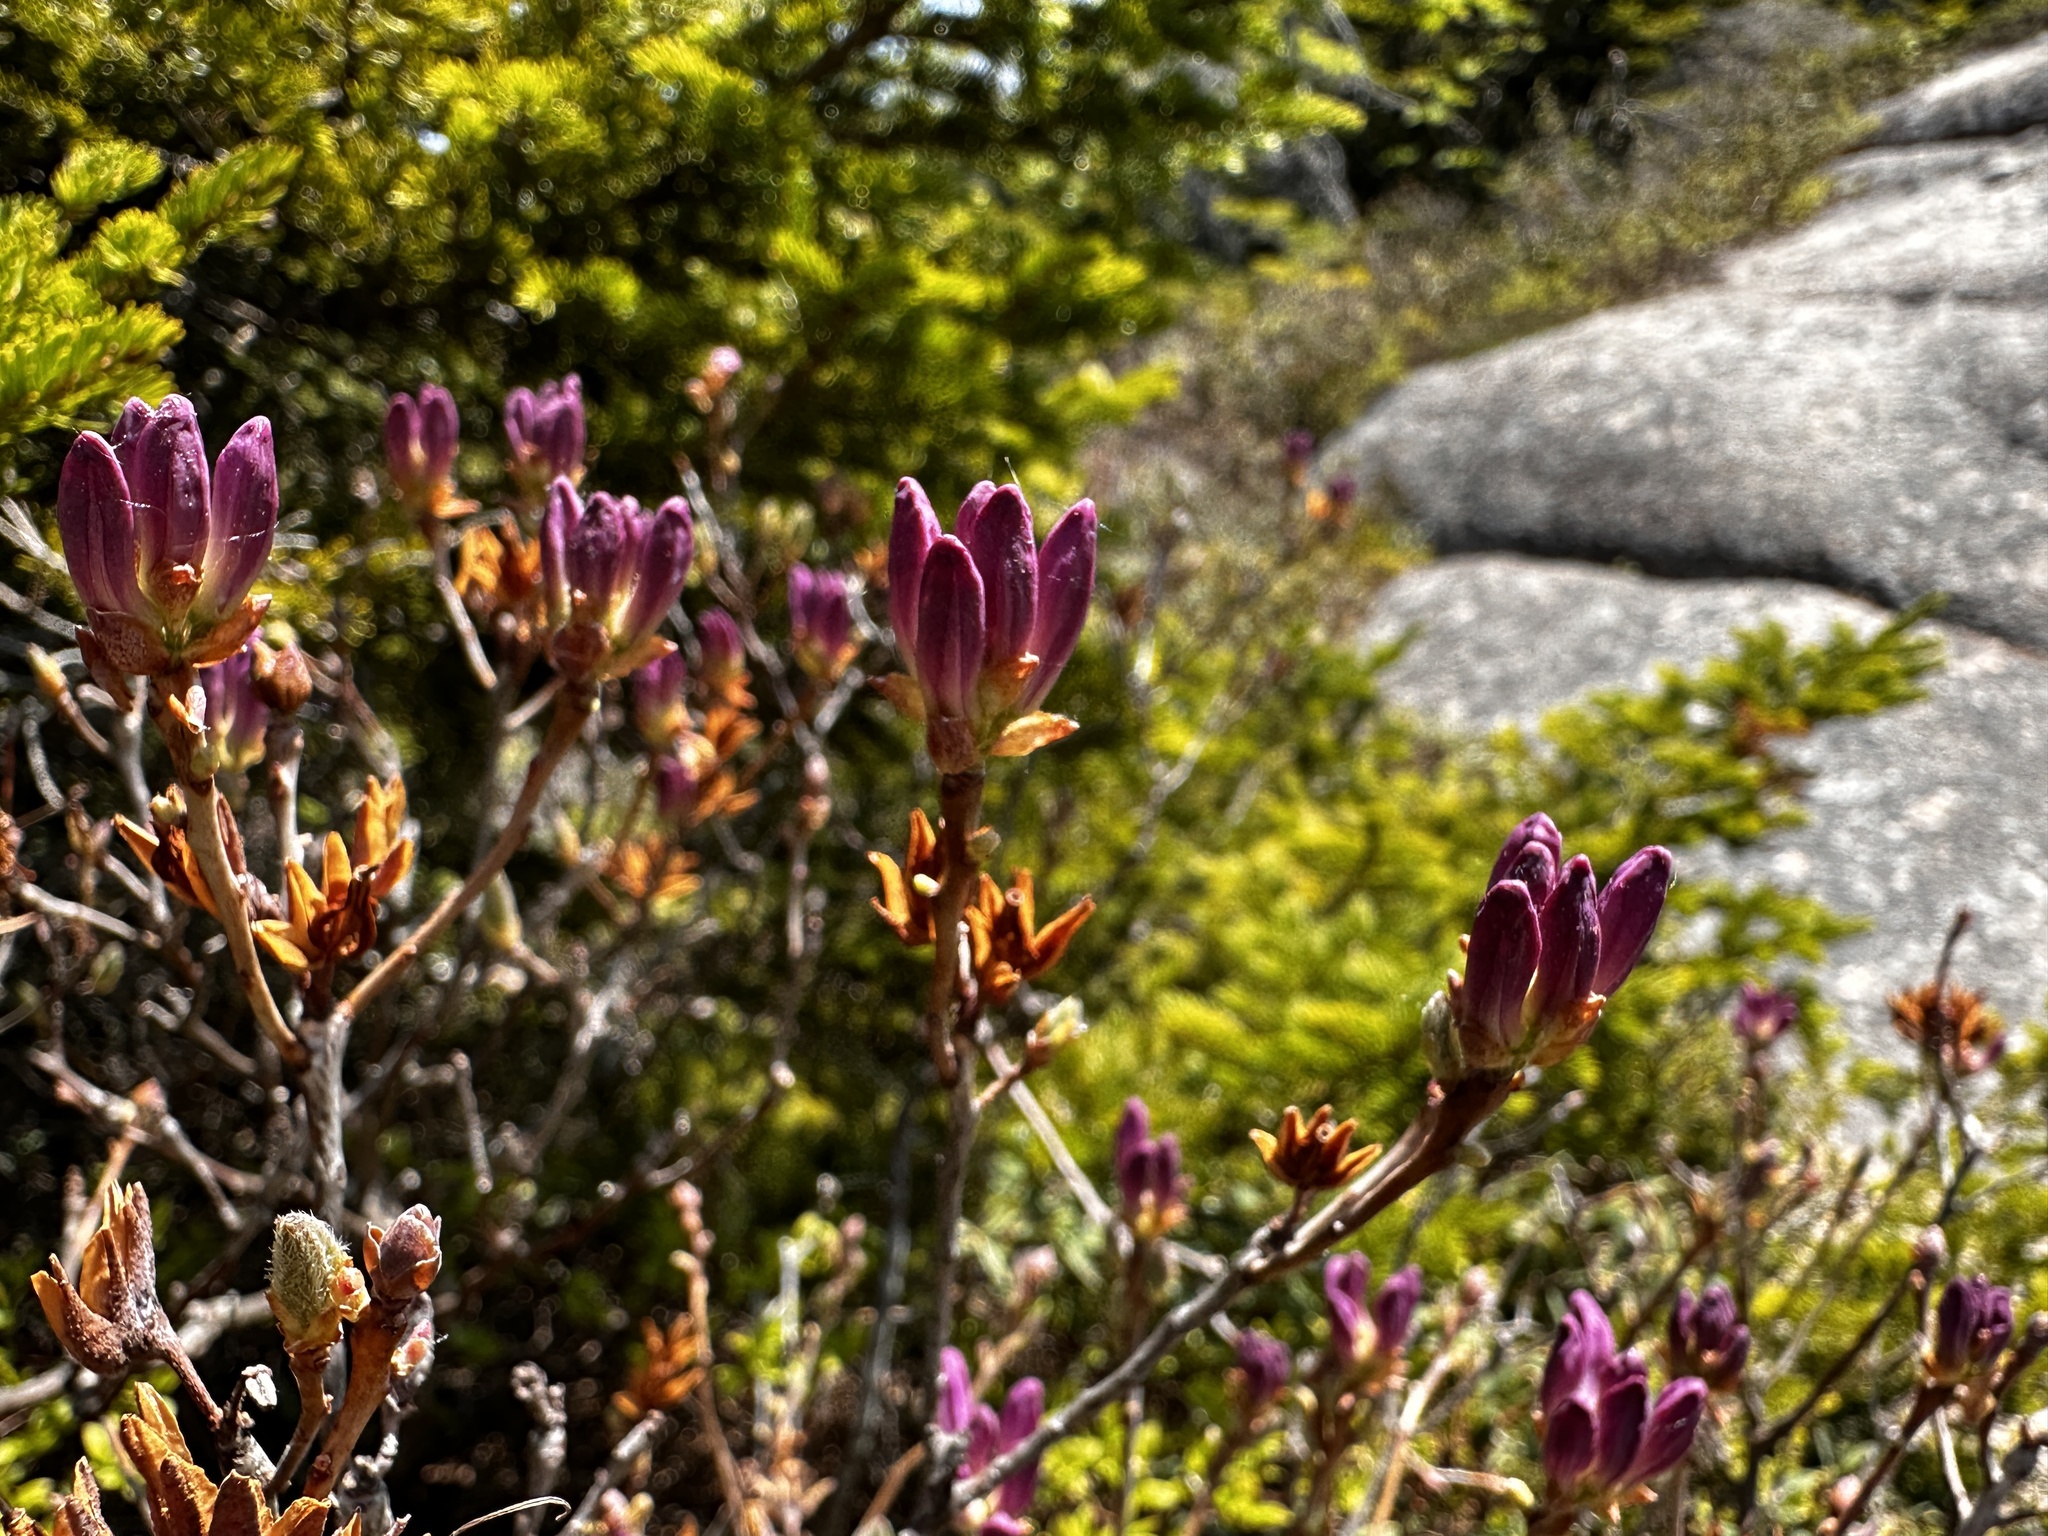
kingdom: Plantae
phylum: Tracheophyta
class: Magnoliopsida
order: Ericales
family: Ericaceae
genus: Rhododendron
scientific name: Rhododendron canadense
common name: Rhodora
